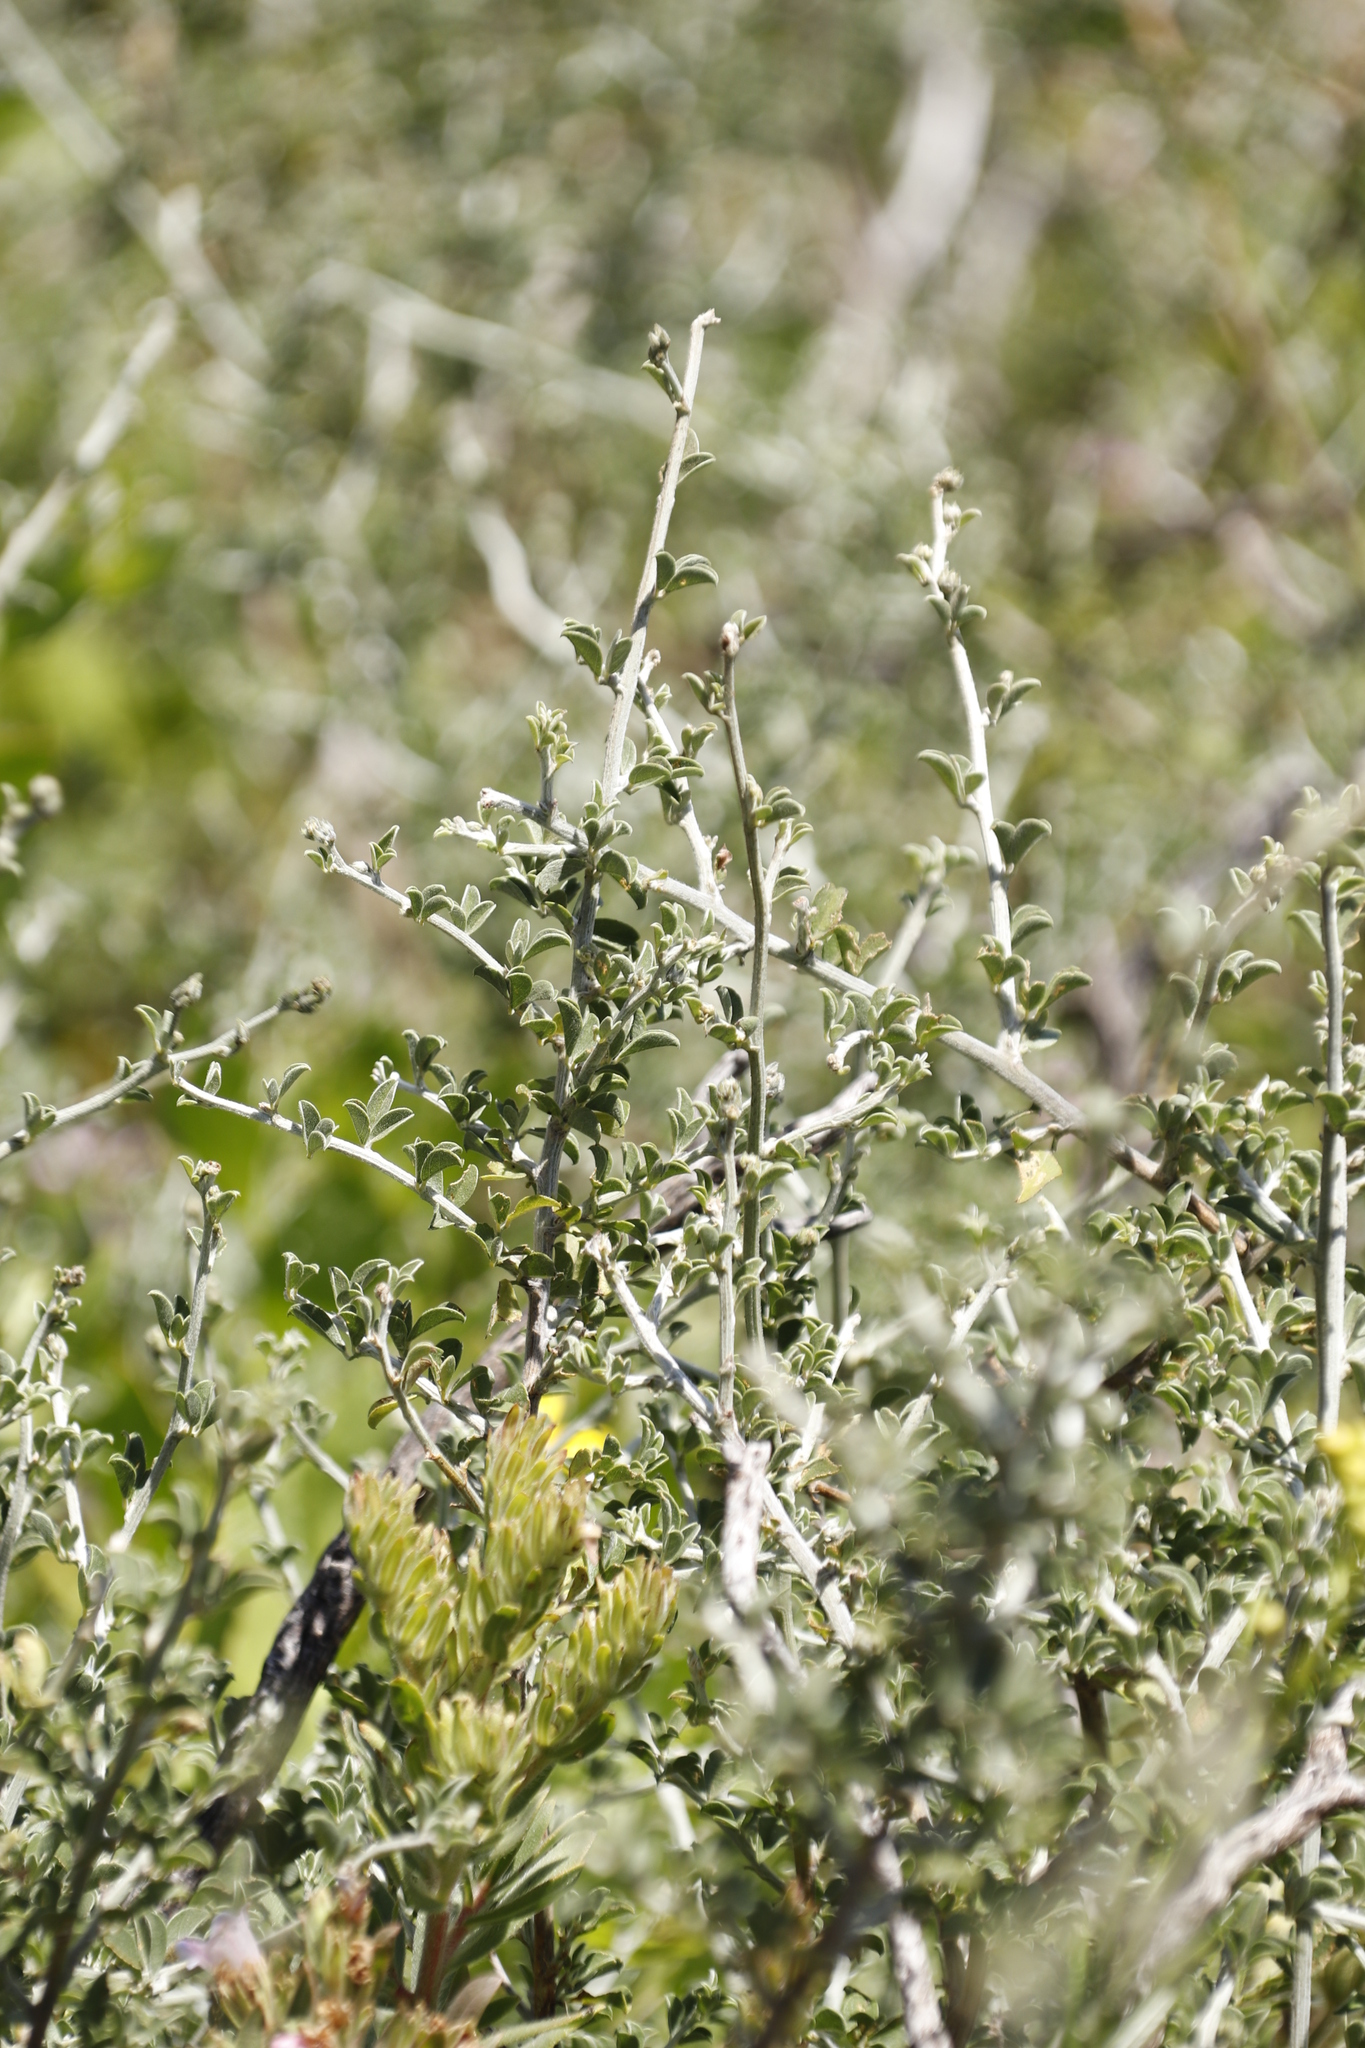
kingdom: Plantae
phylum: Tracheophyta
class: Magnoliopsida
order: Fabales
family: Fabaceae
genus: Psoralea
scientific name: Psoralea hirta
